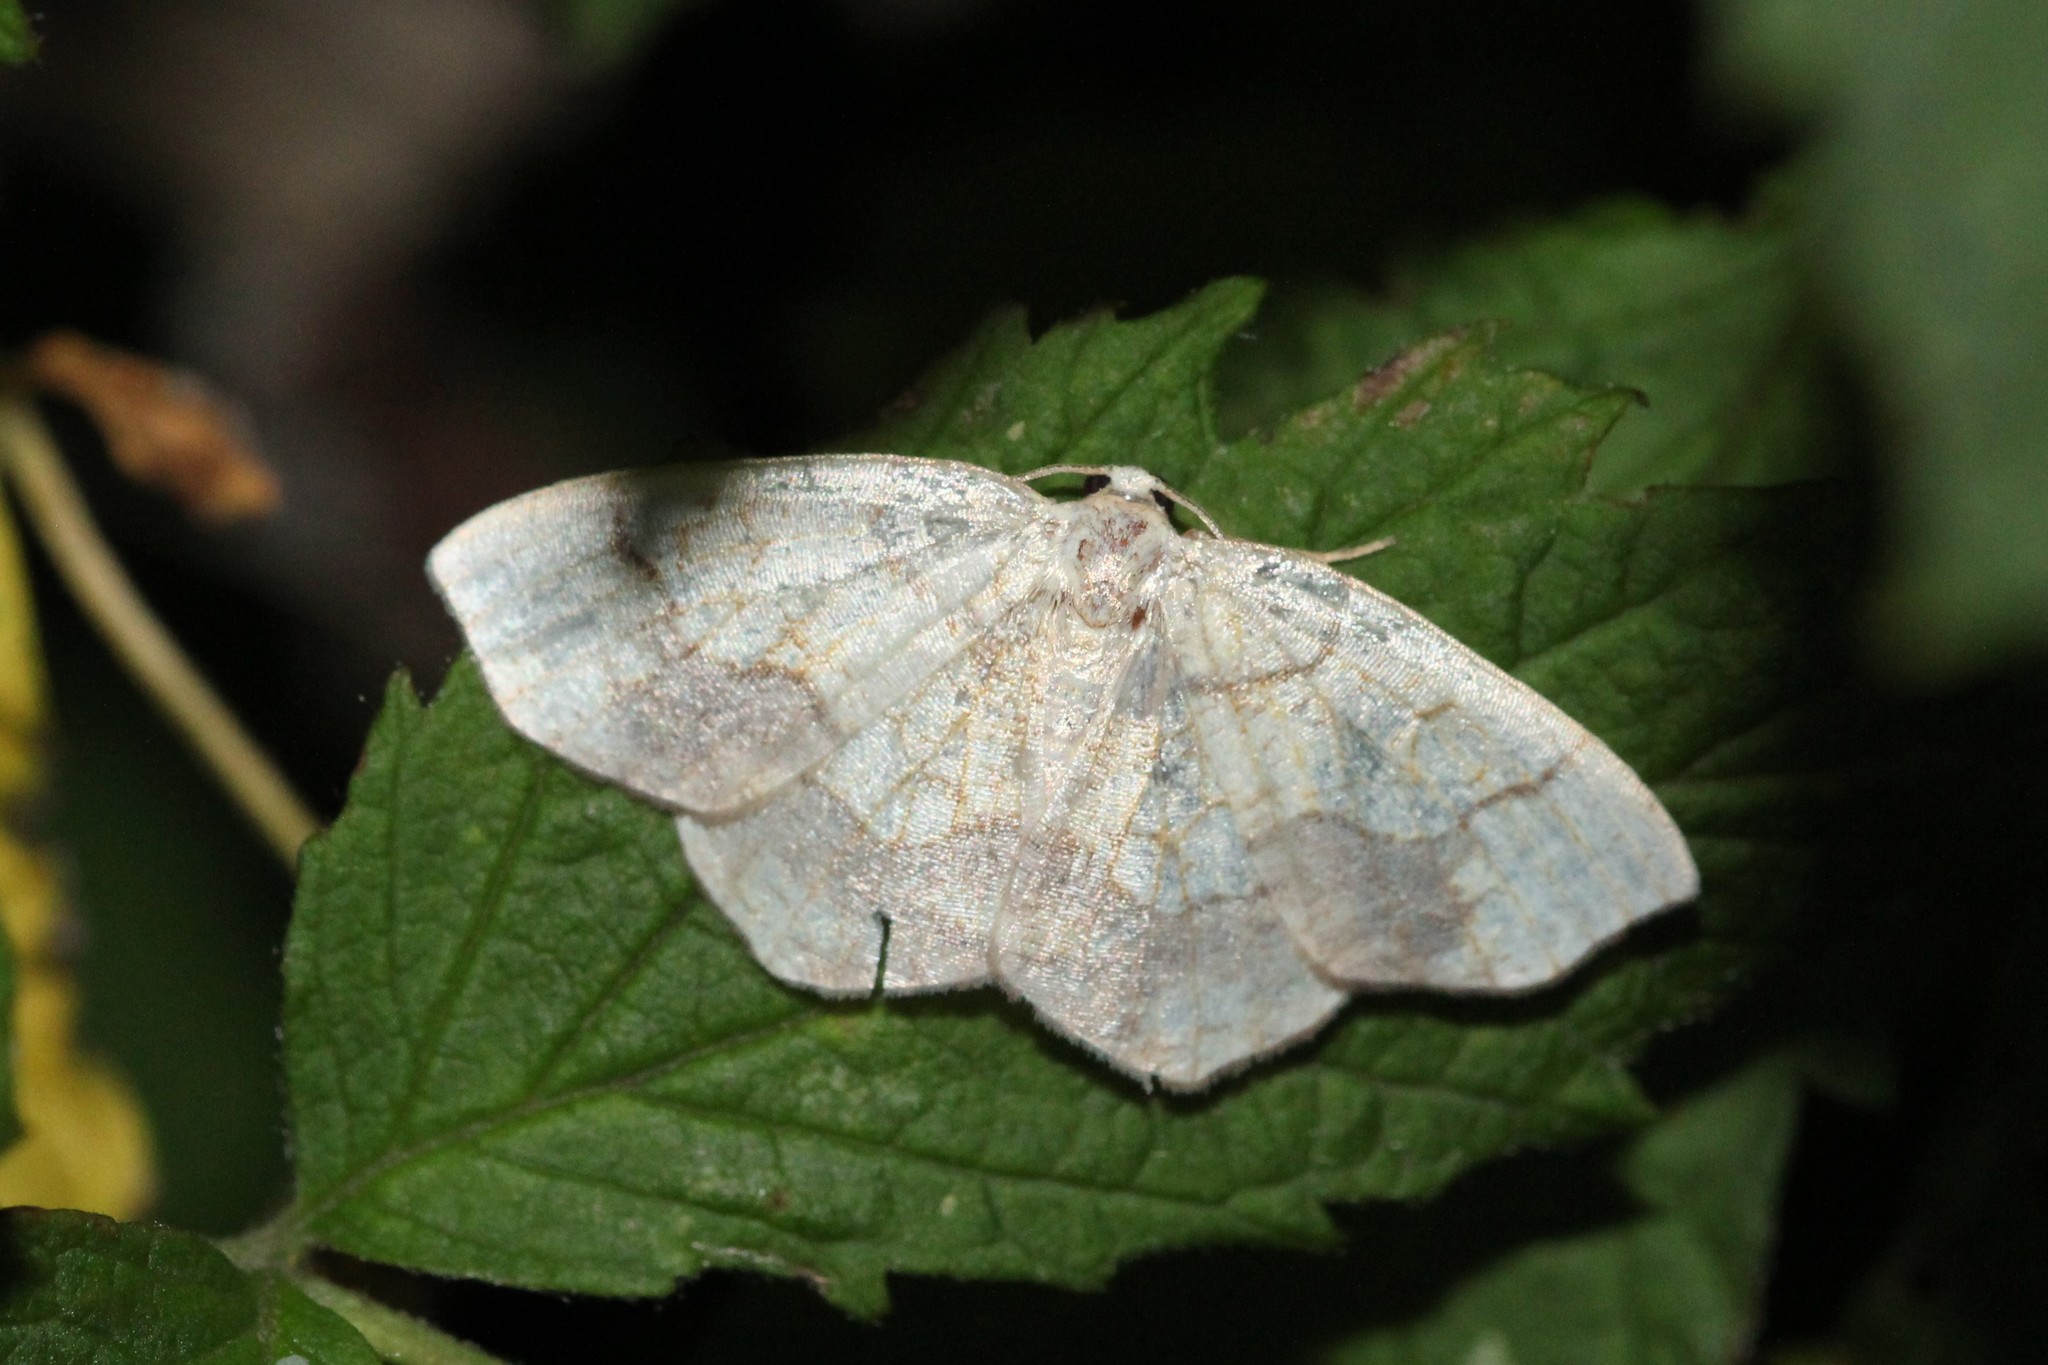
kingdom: Animalia
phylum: Arthropoda
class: Insecta
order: Lepidoptera
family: Geometridae
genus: Nematocampa
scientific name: Nematocampa resistaria
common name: Horned spanworm moth
